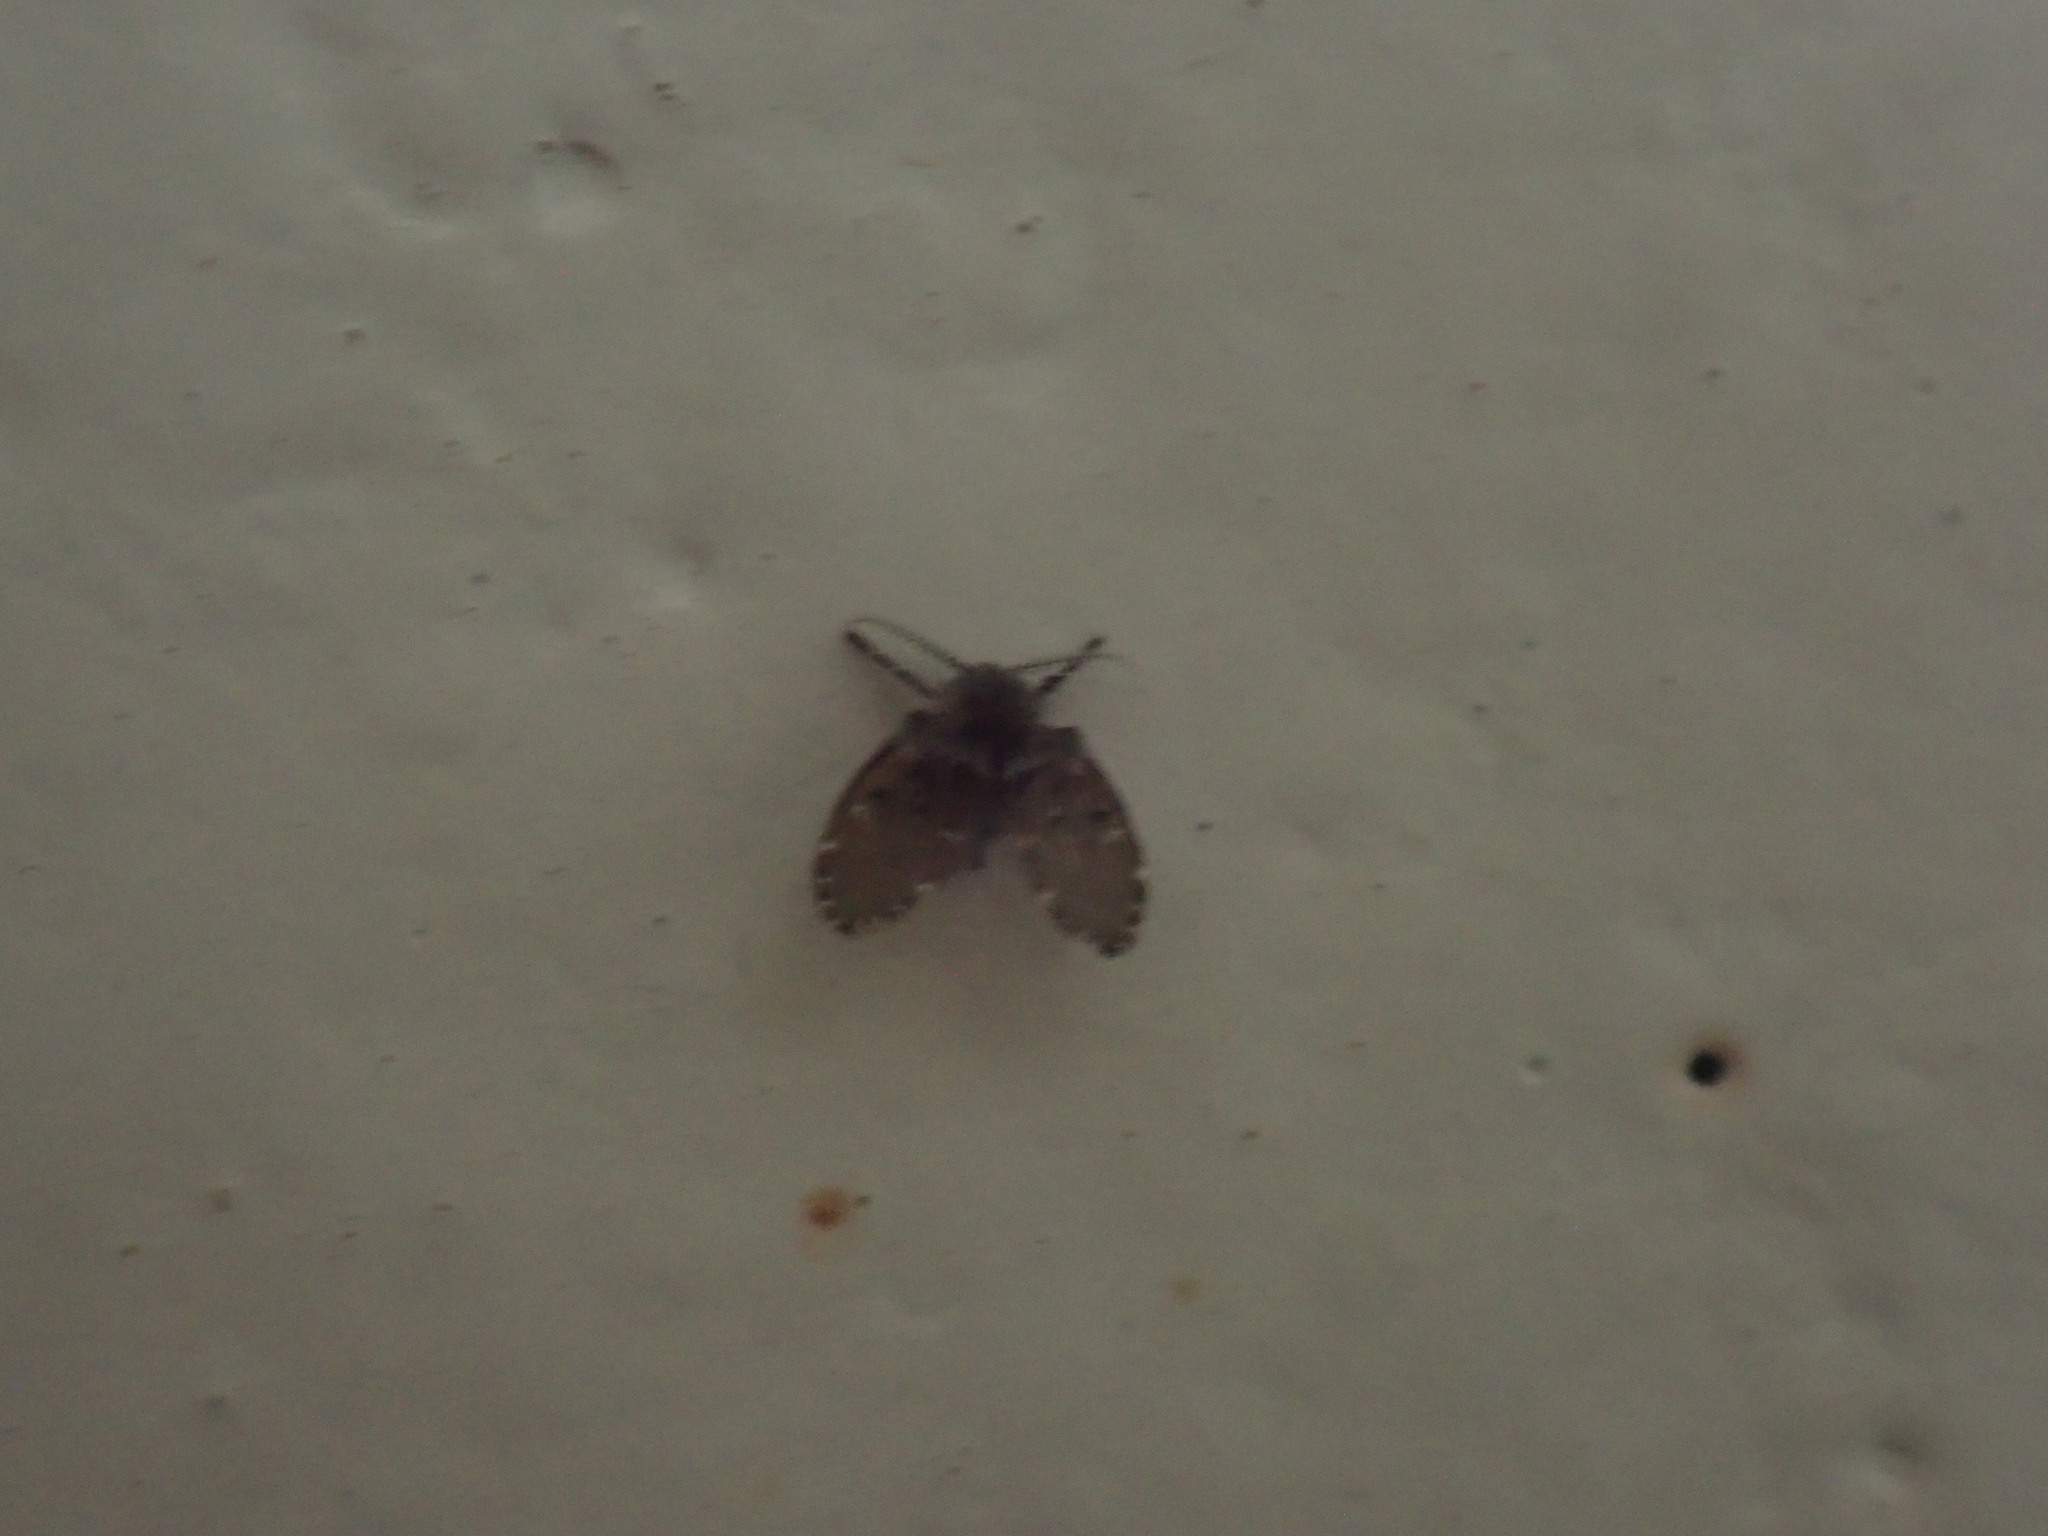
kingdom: Animalia
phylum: Arthropoda
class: Insecta
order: Diptera
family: Psychodidae
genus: Clogmia
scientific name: Clogmia albipunctatus
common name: White-spotted moth fly
